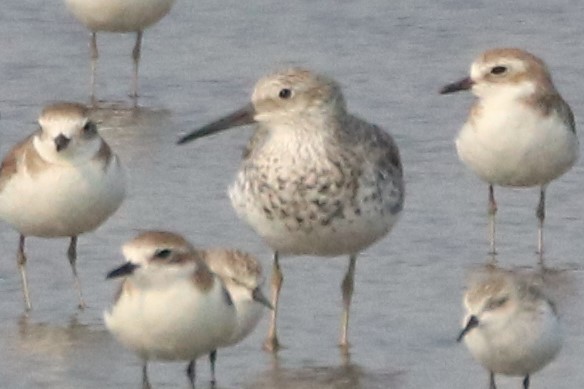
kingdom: Animalia
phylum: Chordata
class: Aves
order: Charadriiformes
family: Scolopacidae
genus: Calidris
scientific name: Calidris tenuirostris
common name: Great knot
